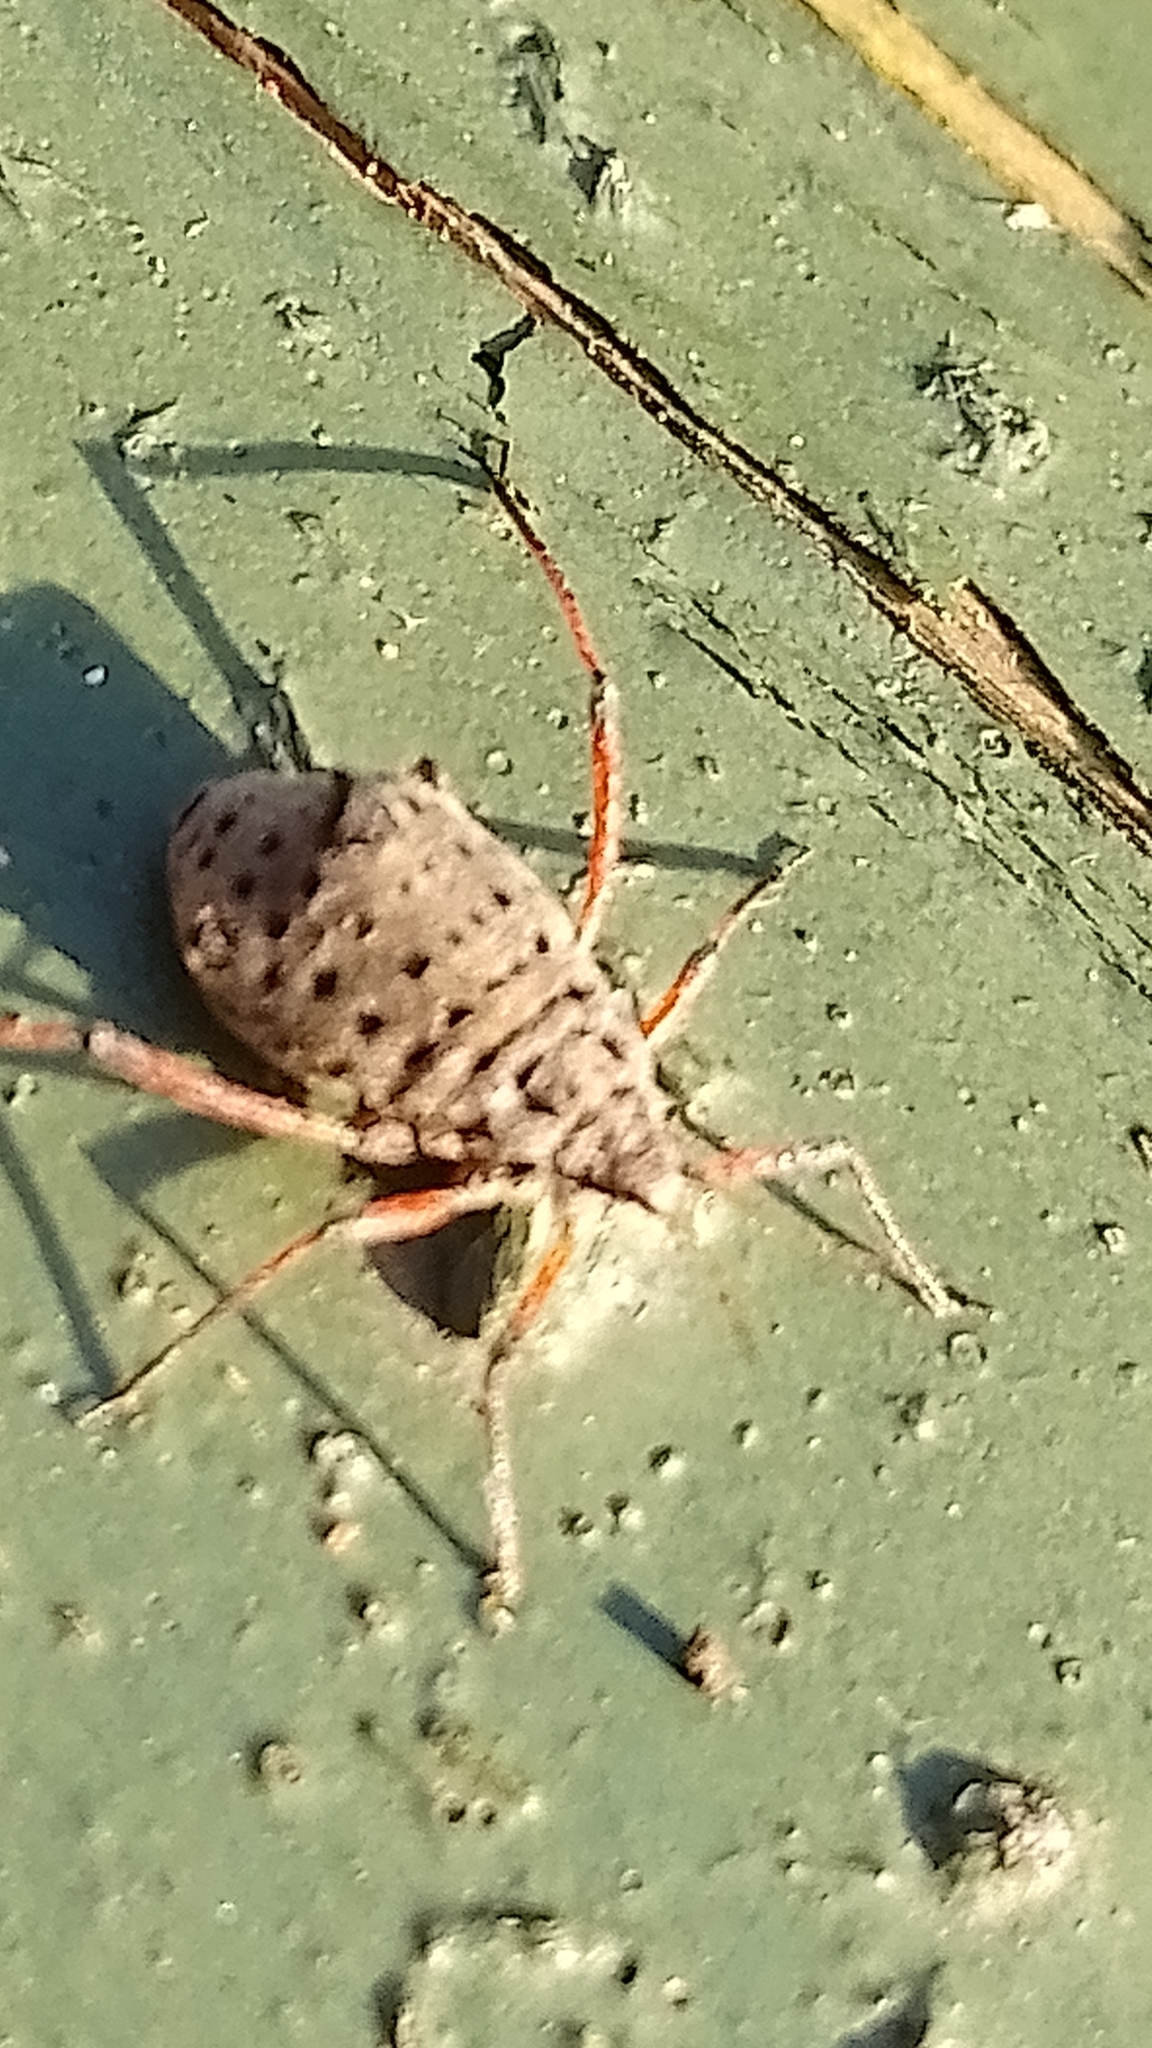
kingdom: Animalia
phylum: Arthropoda
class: Insecta
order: Hemiptera
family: Aphididae
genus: Tuberolachnus
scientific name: Tuberolachnus salignus
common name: Giant willow aphid
